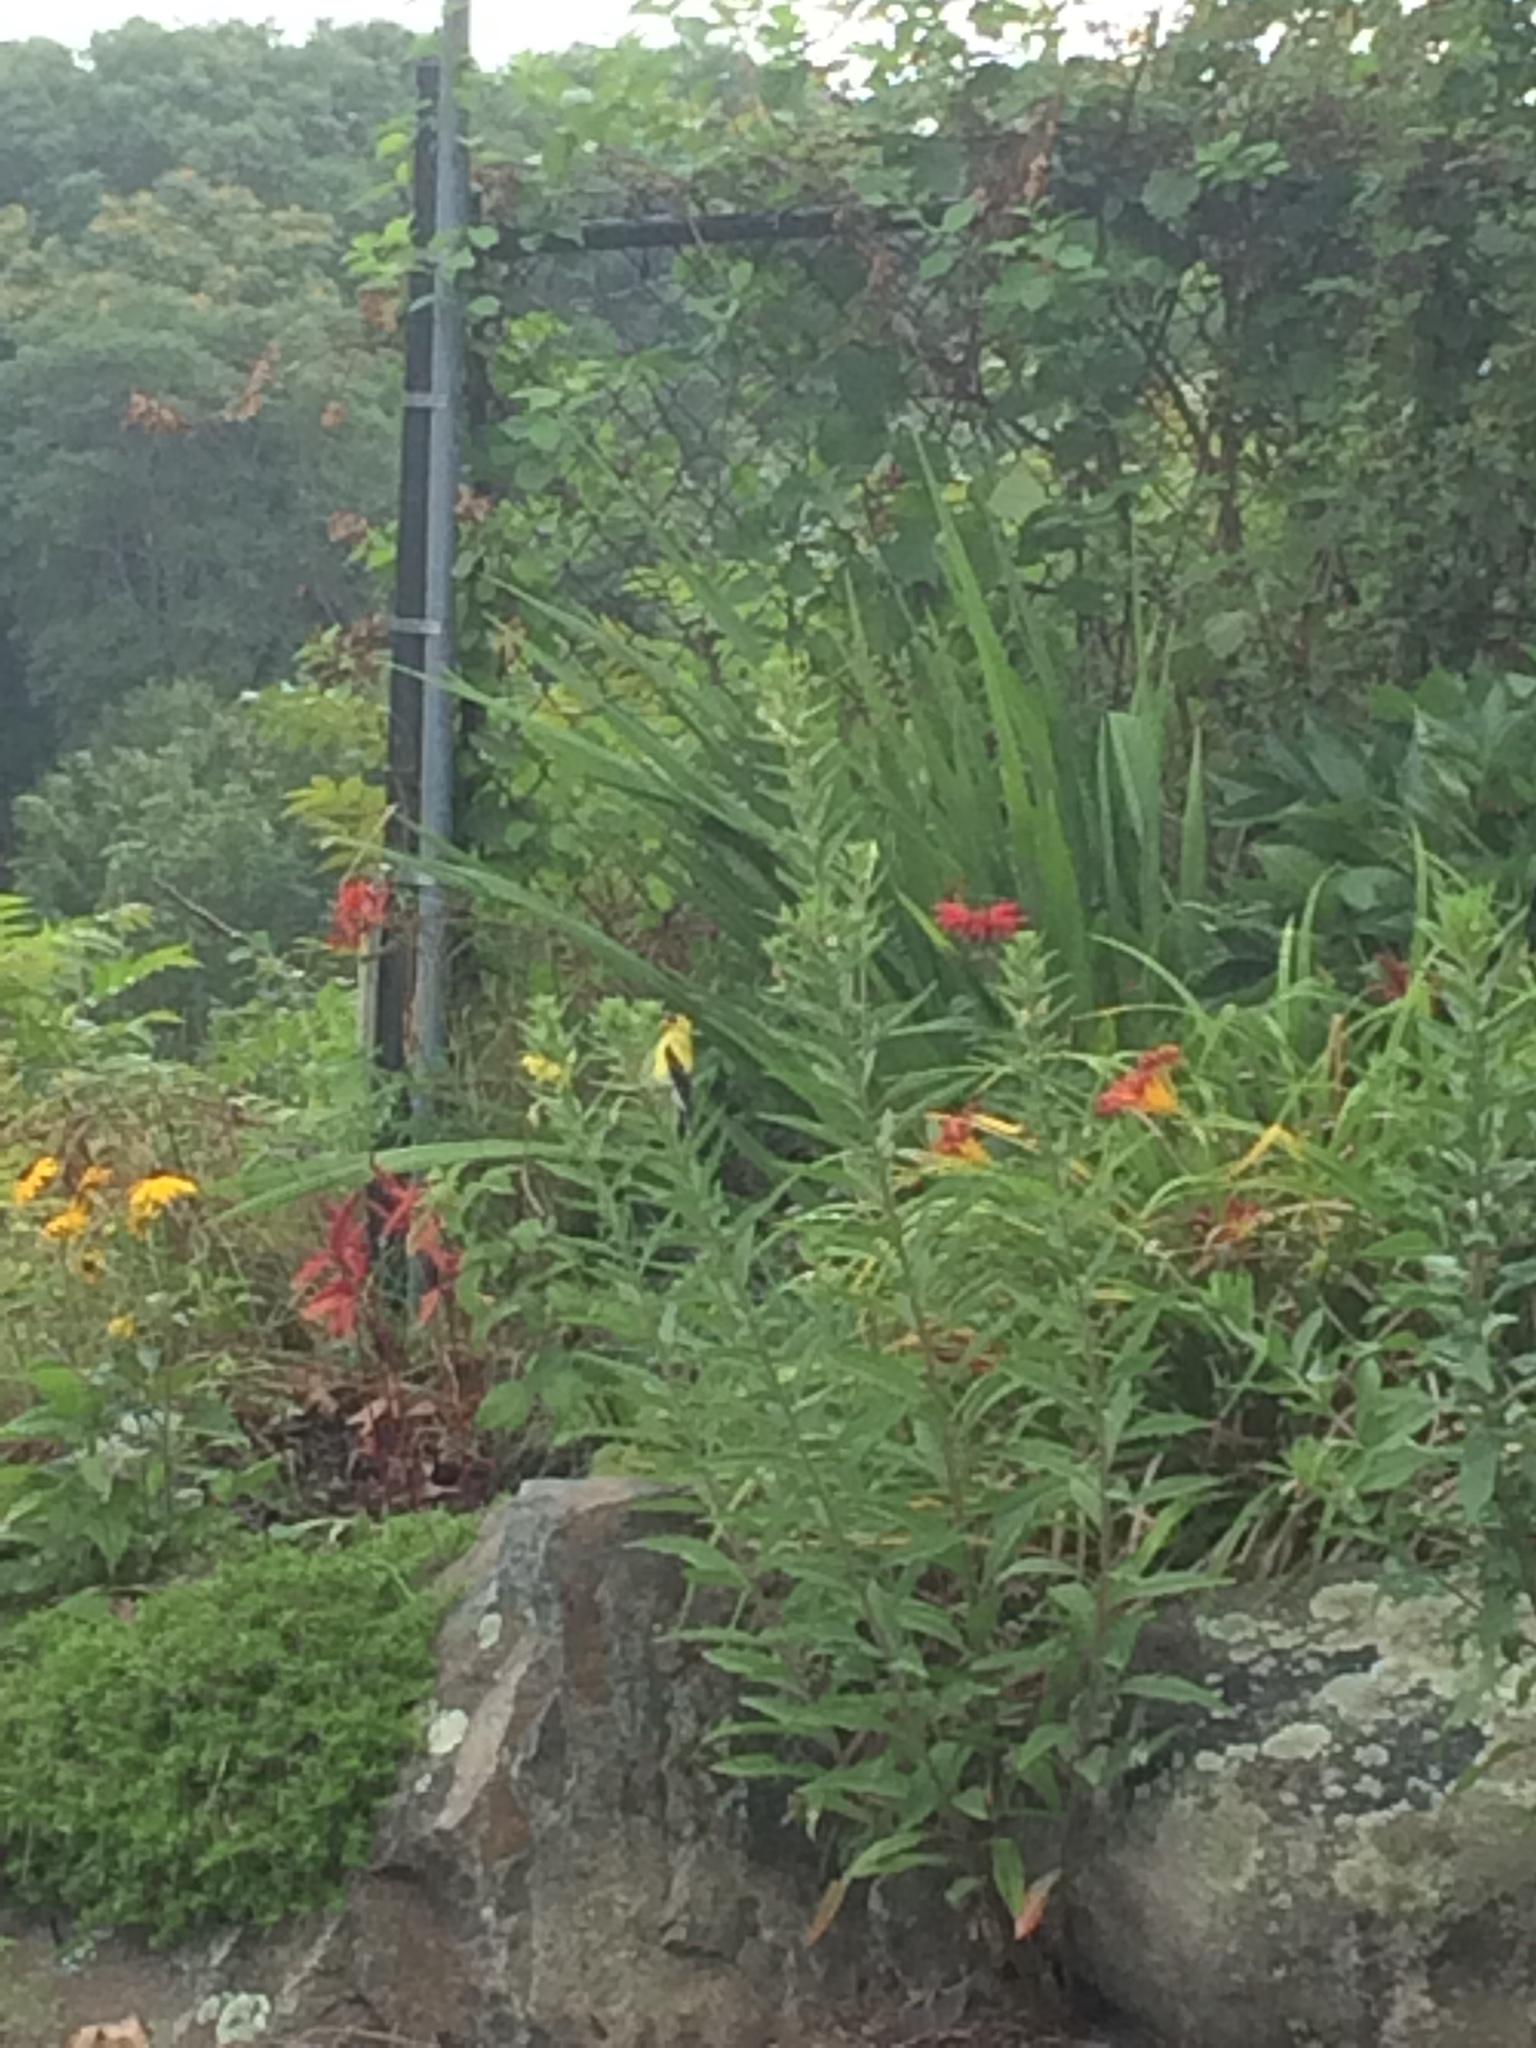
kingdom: Animalia
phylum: Chordata
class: Aves
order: Passeriformes
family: Fringillidae
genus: Spinus
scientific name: Spinus tristis
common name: American goldfinch
